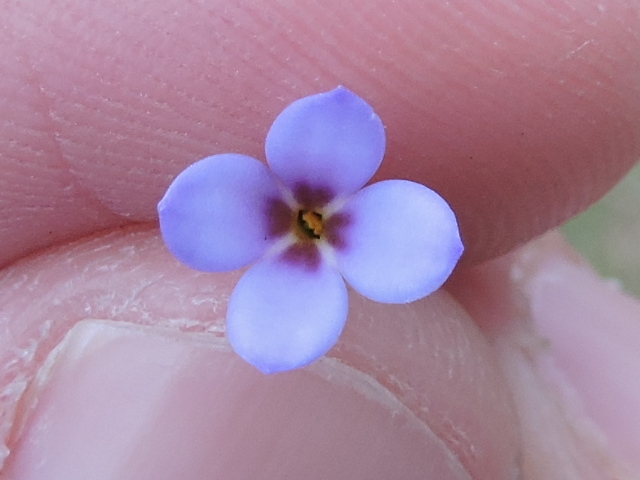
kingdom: Plantae
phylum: Tracheophyta
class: Magnoliopsida
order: Gentianales
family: Rubiaceae
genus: Houstonia
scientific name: Houstonia pusilla
